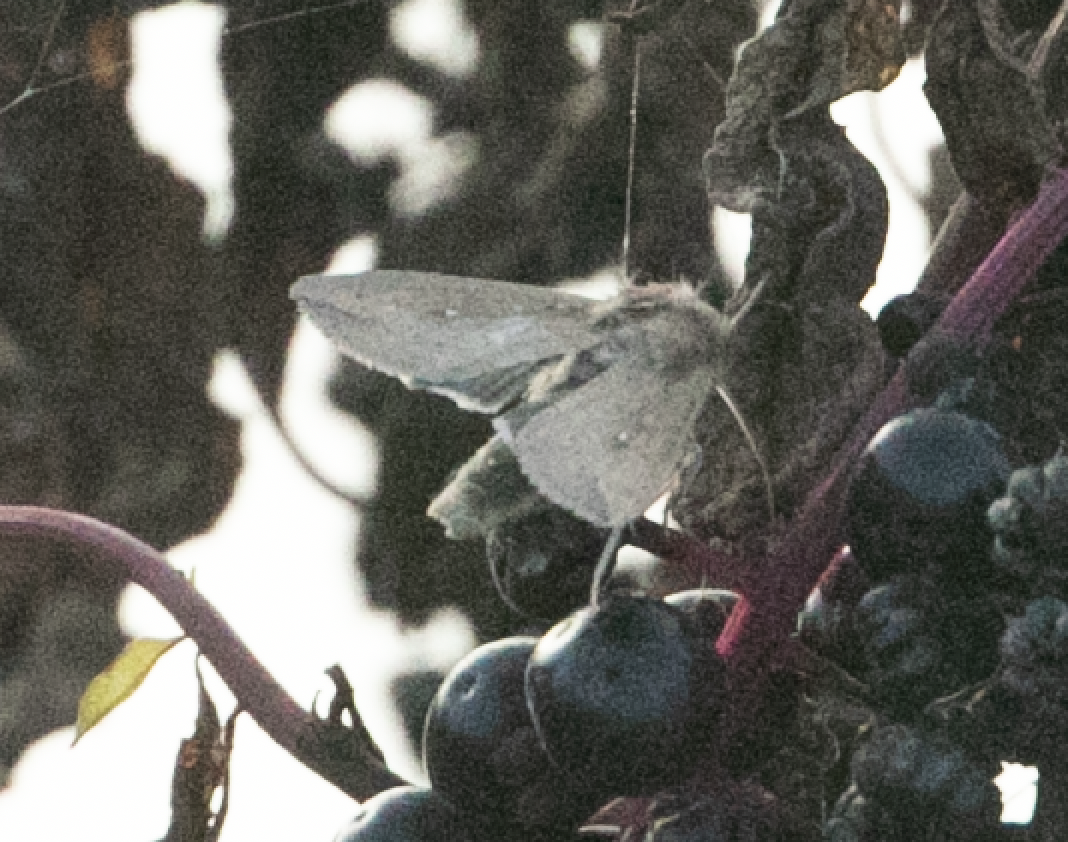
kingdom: Animalia
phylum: Arthropoda
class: Insecta
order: Lepidoptera
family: Noctuidae
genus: Mythimna
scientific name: Mythimna unipuncta
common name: White-speck
